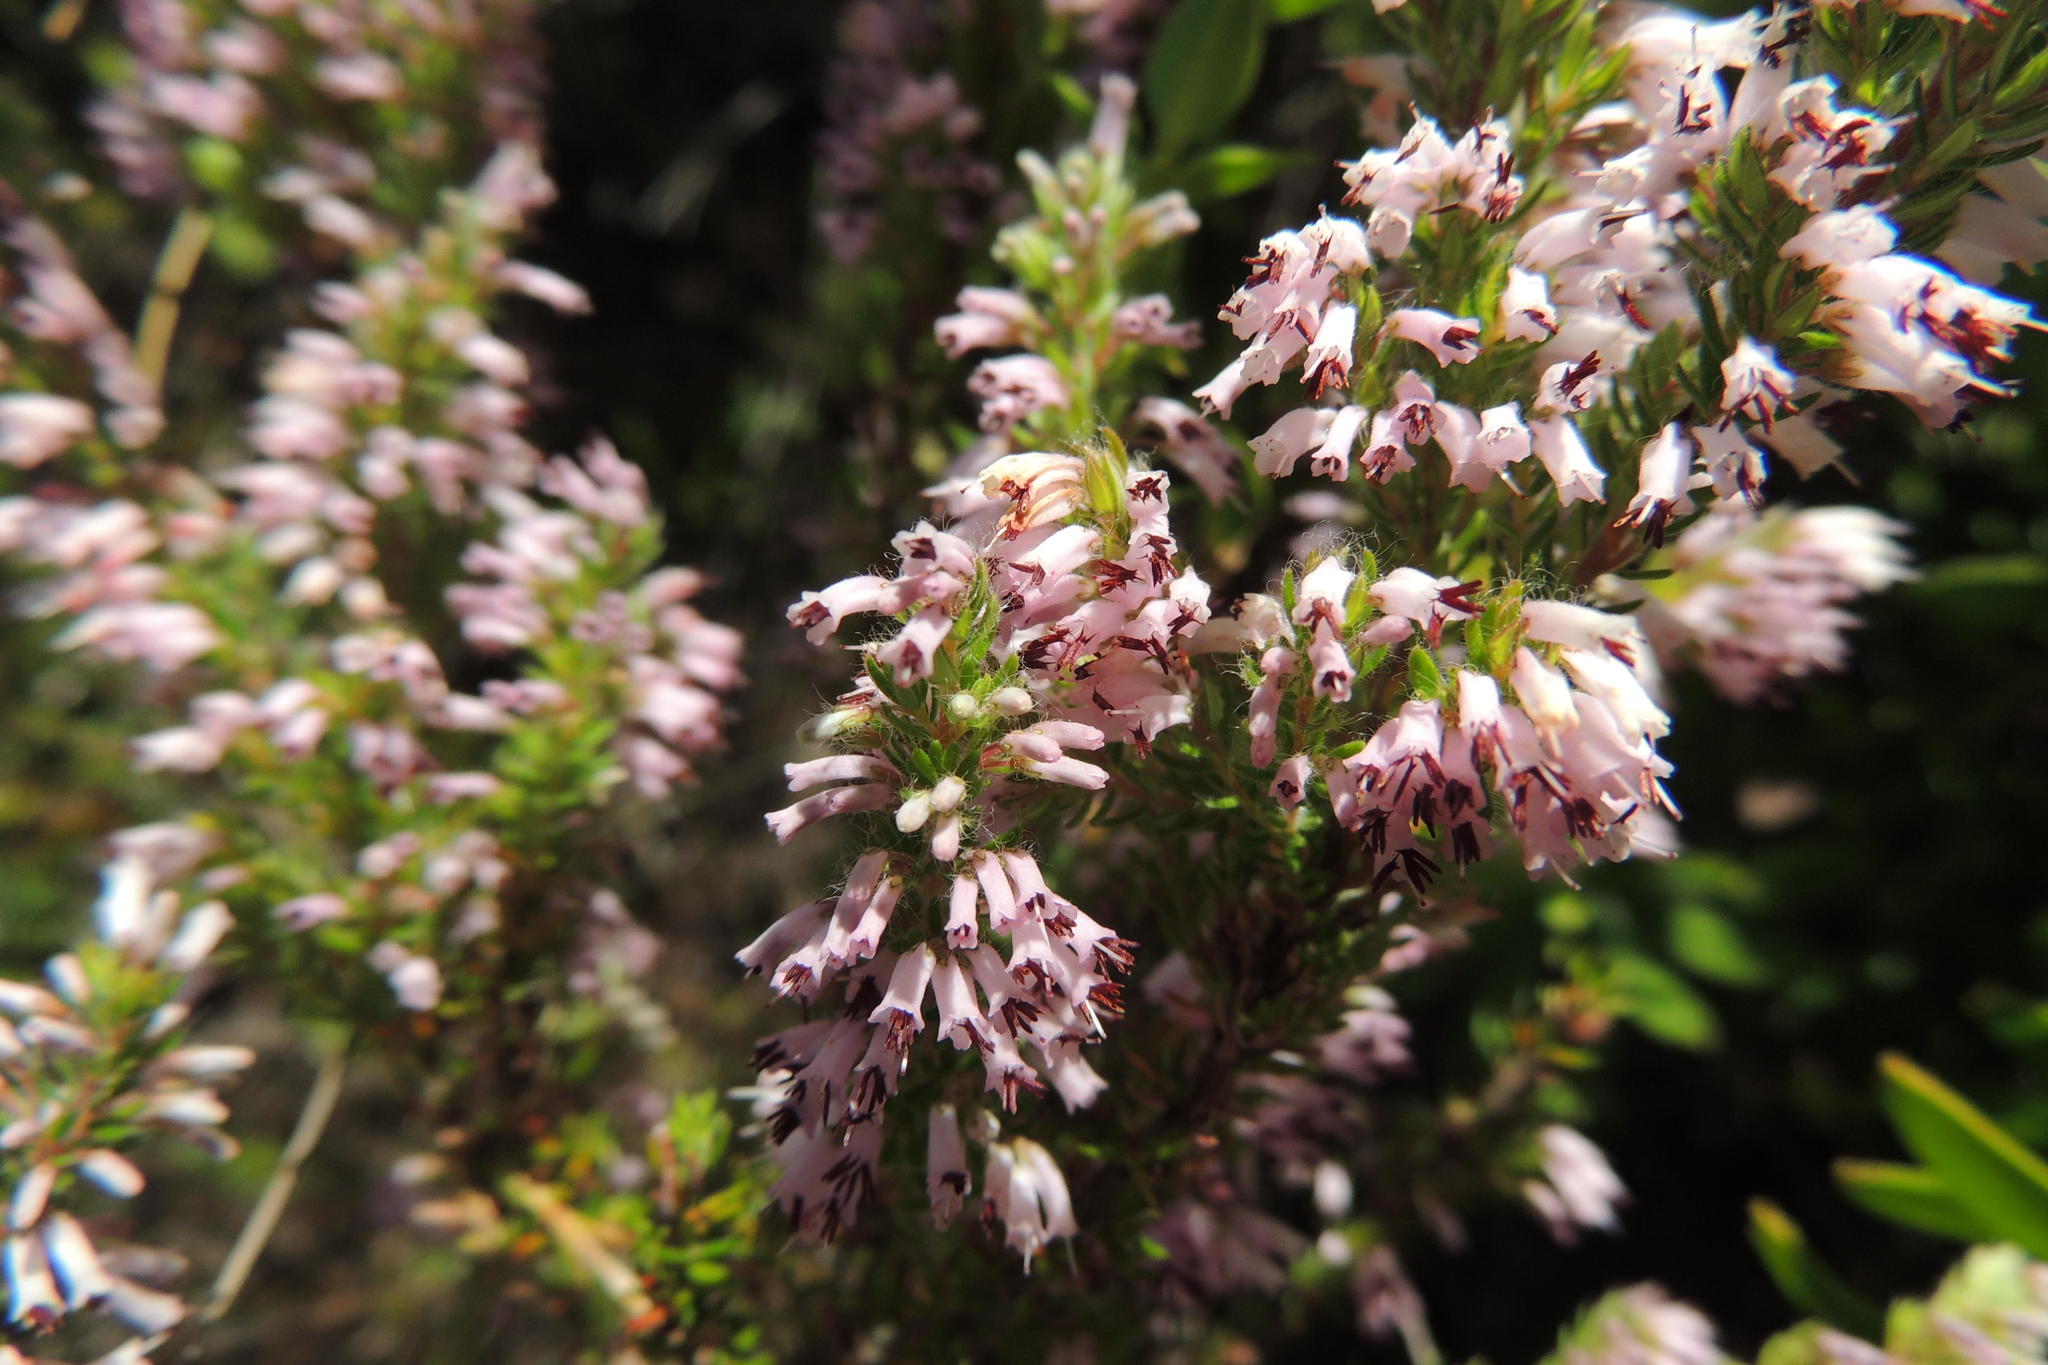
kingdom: Plantae
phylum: Tracheophyta
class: Magnoliopsida
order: Ericales
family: Ericaceae
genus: Erica
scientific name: Erica longimontana
